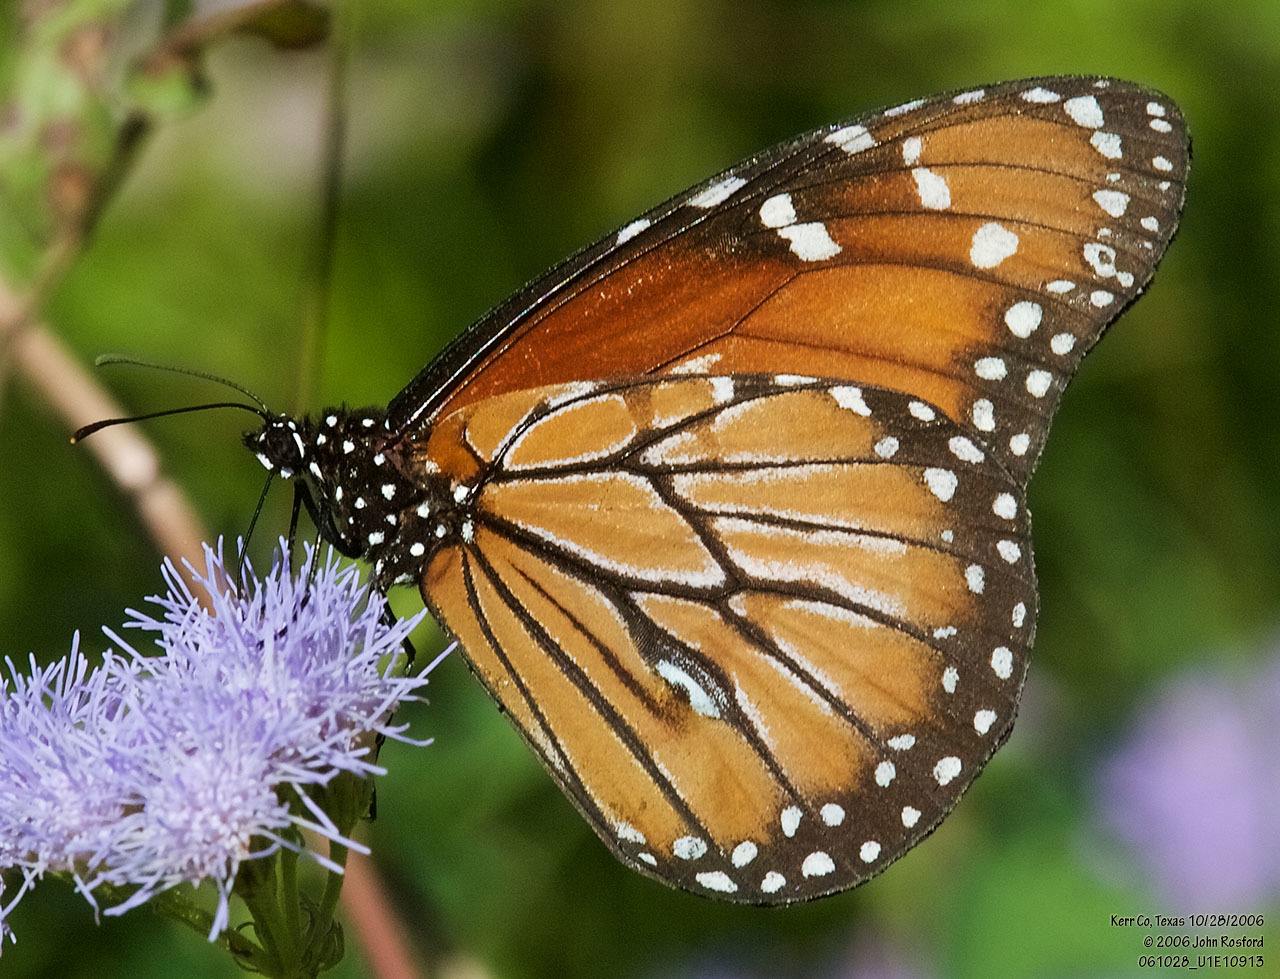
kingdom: Animalia
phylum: Arthropoda
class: Insecta
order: Lepidoptera
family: Nymphalidae
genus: Danaus
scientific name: Danaus eresimus
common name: Soldier
